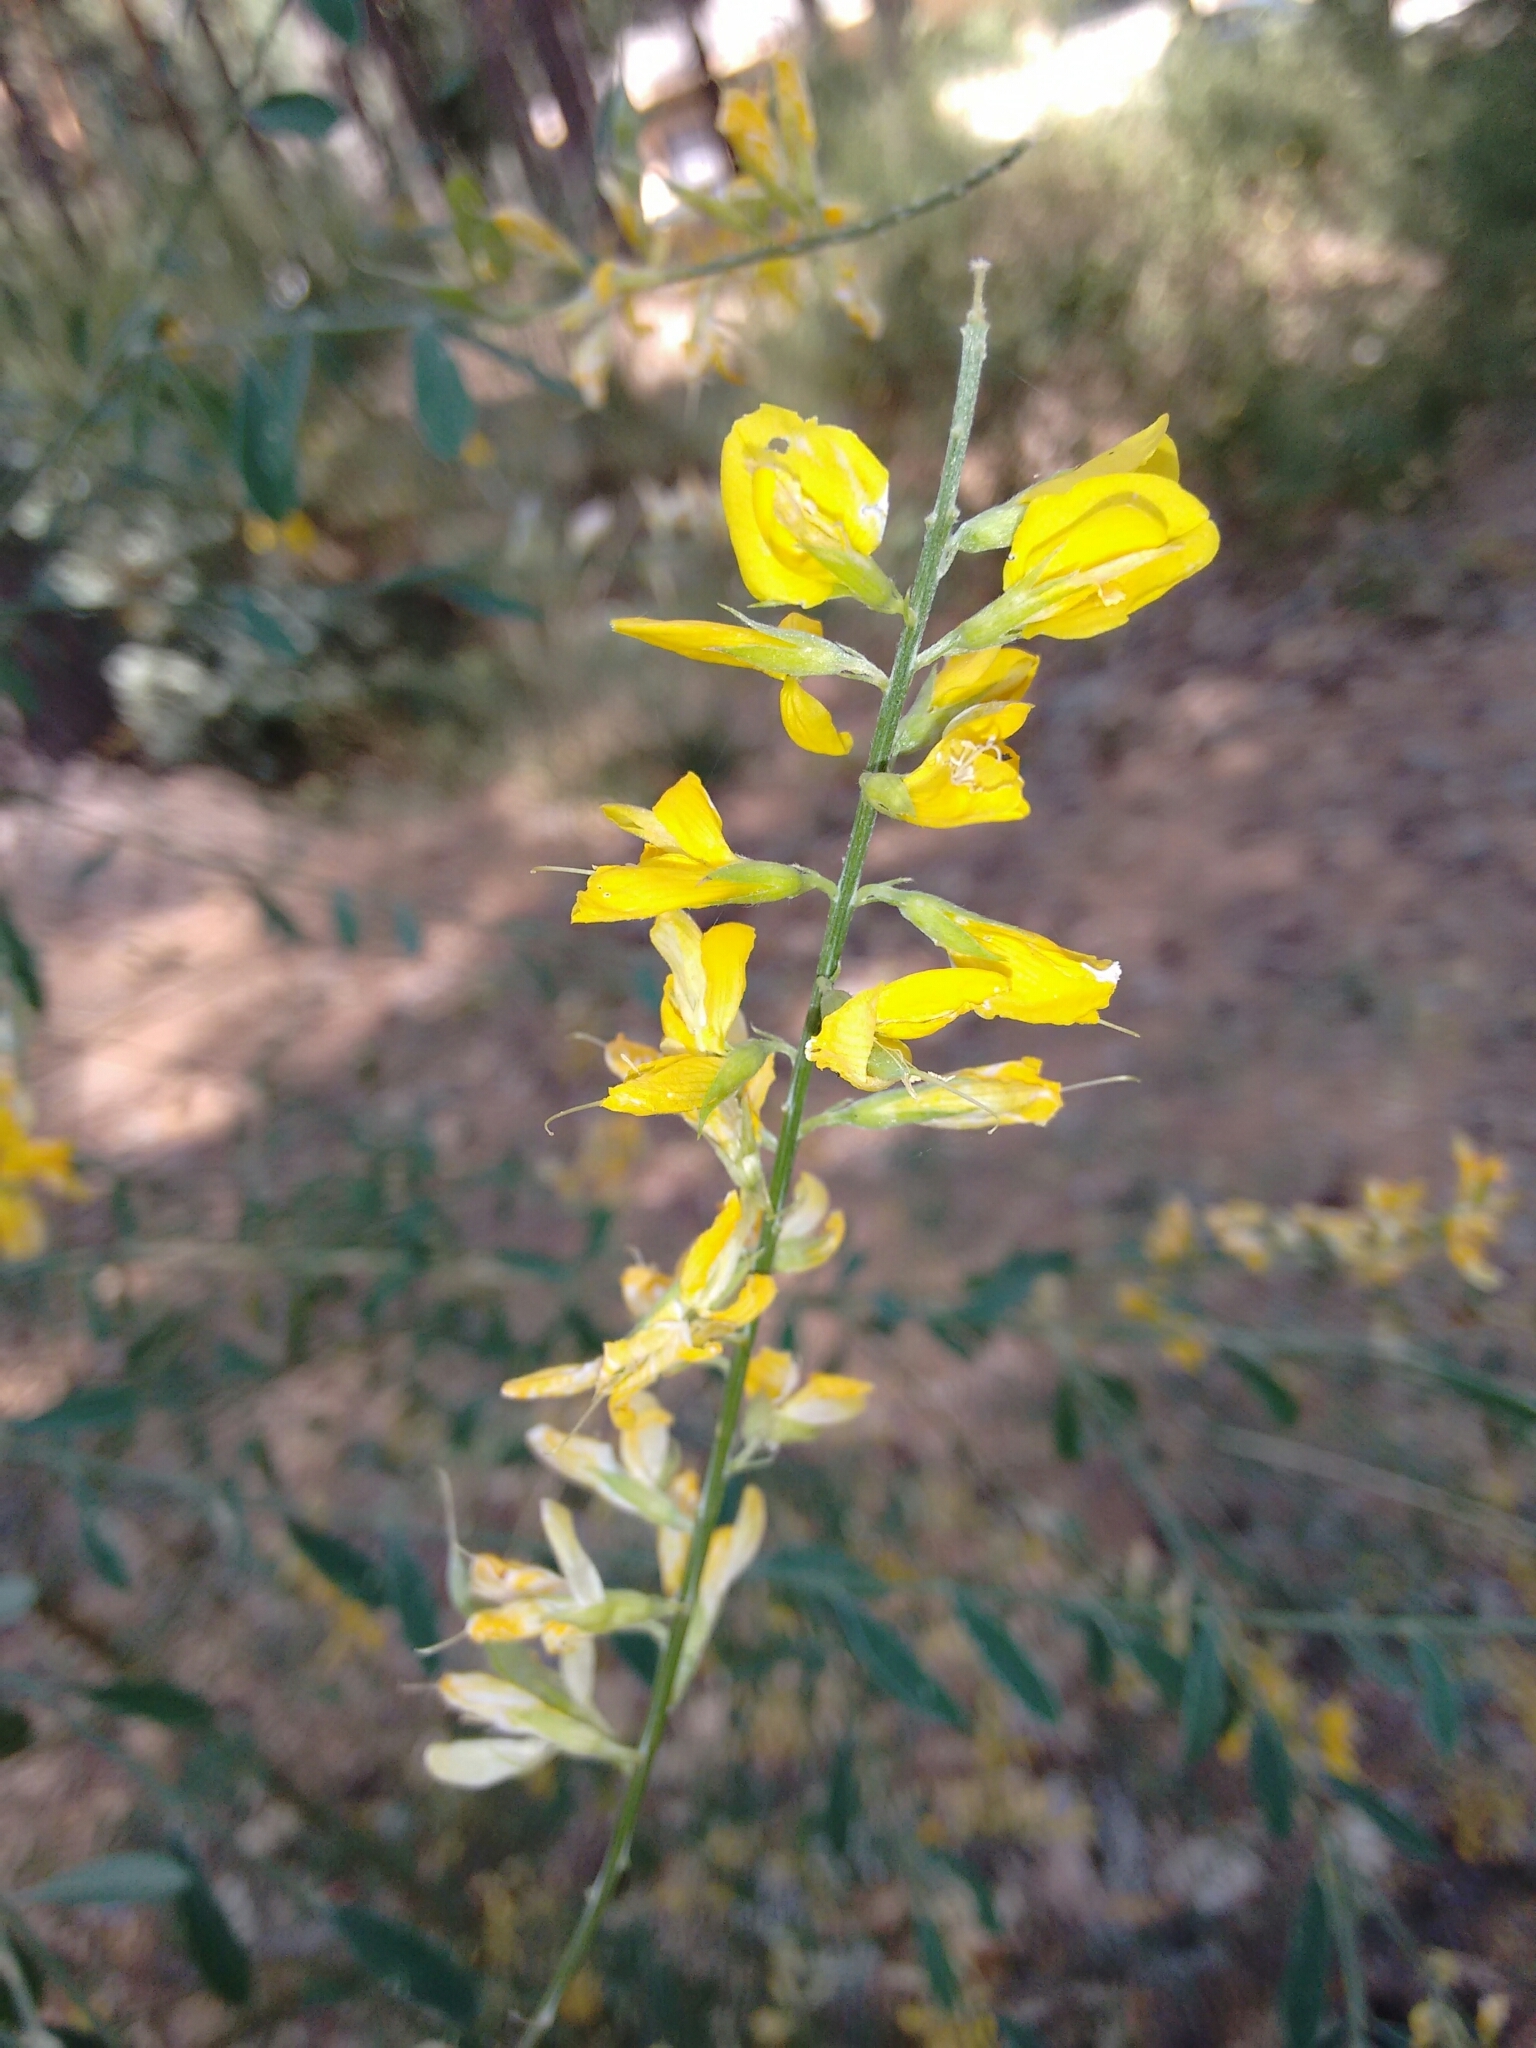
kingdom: Plantae
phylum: Tracheophyta
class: Magnoliopsida
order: Fabales
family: Fabaceae
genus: Genista
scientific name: Genista florida
